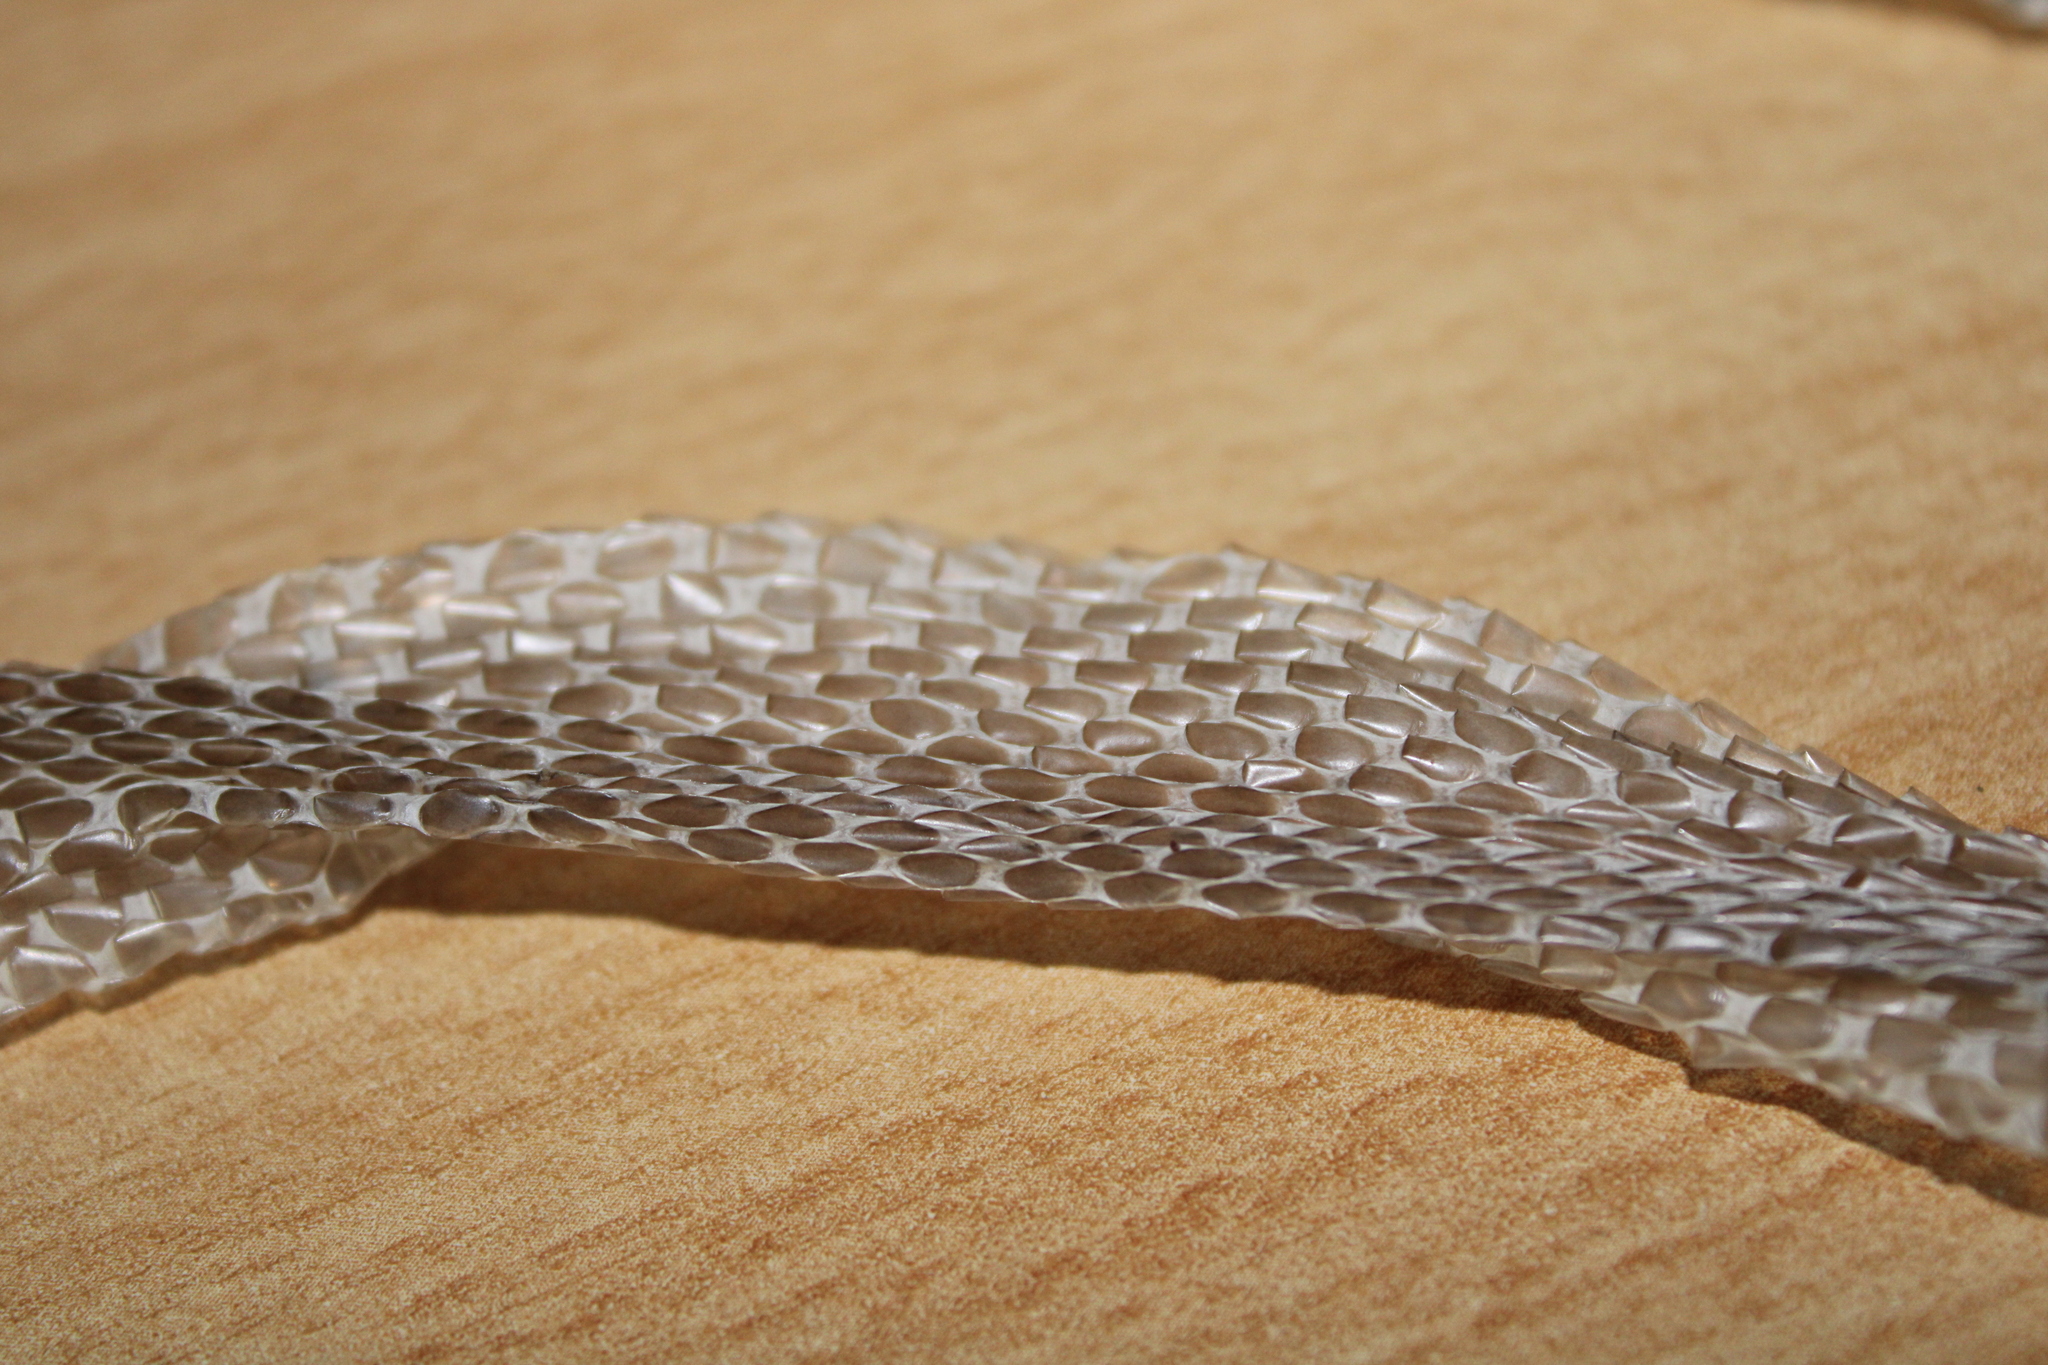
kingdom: Animalia
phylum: Chordata
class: Squamata
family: Colubridae
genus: Coronella
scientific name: Coronella austriaca
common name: Smooth snake
